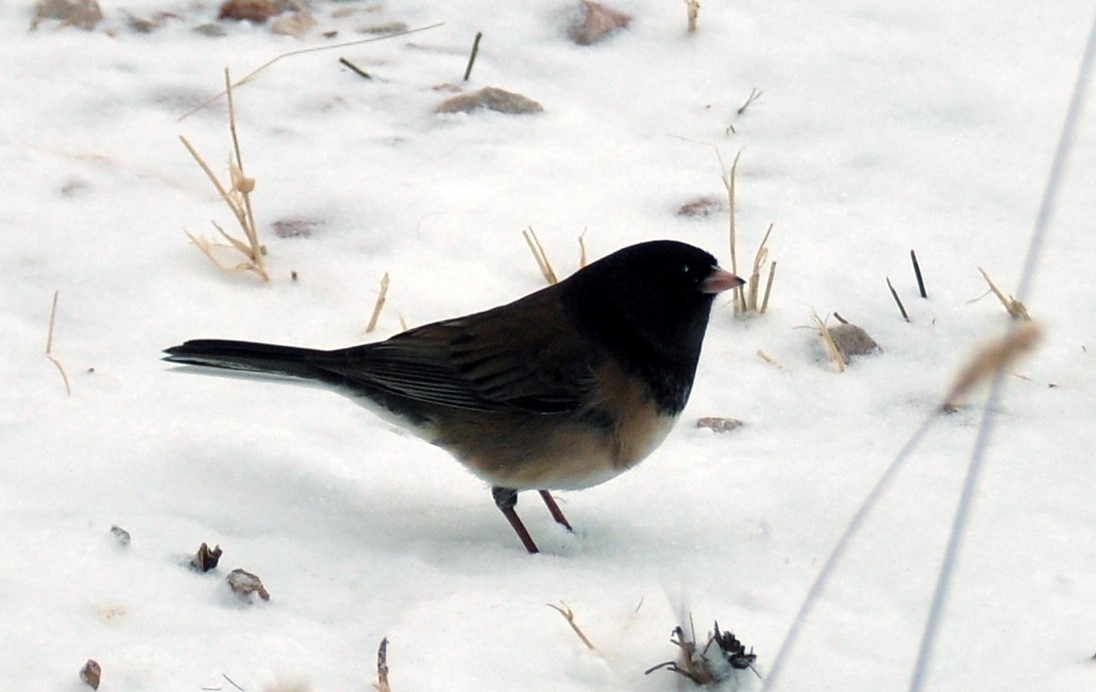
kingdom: Animalia
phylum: Chordata
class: Aves
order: Passeriformes
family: Passerellidae
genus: Junco
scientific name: Junco hyemalis
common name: Dark-eyed junco
